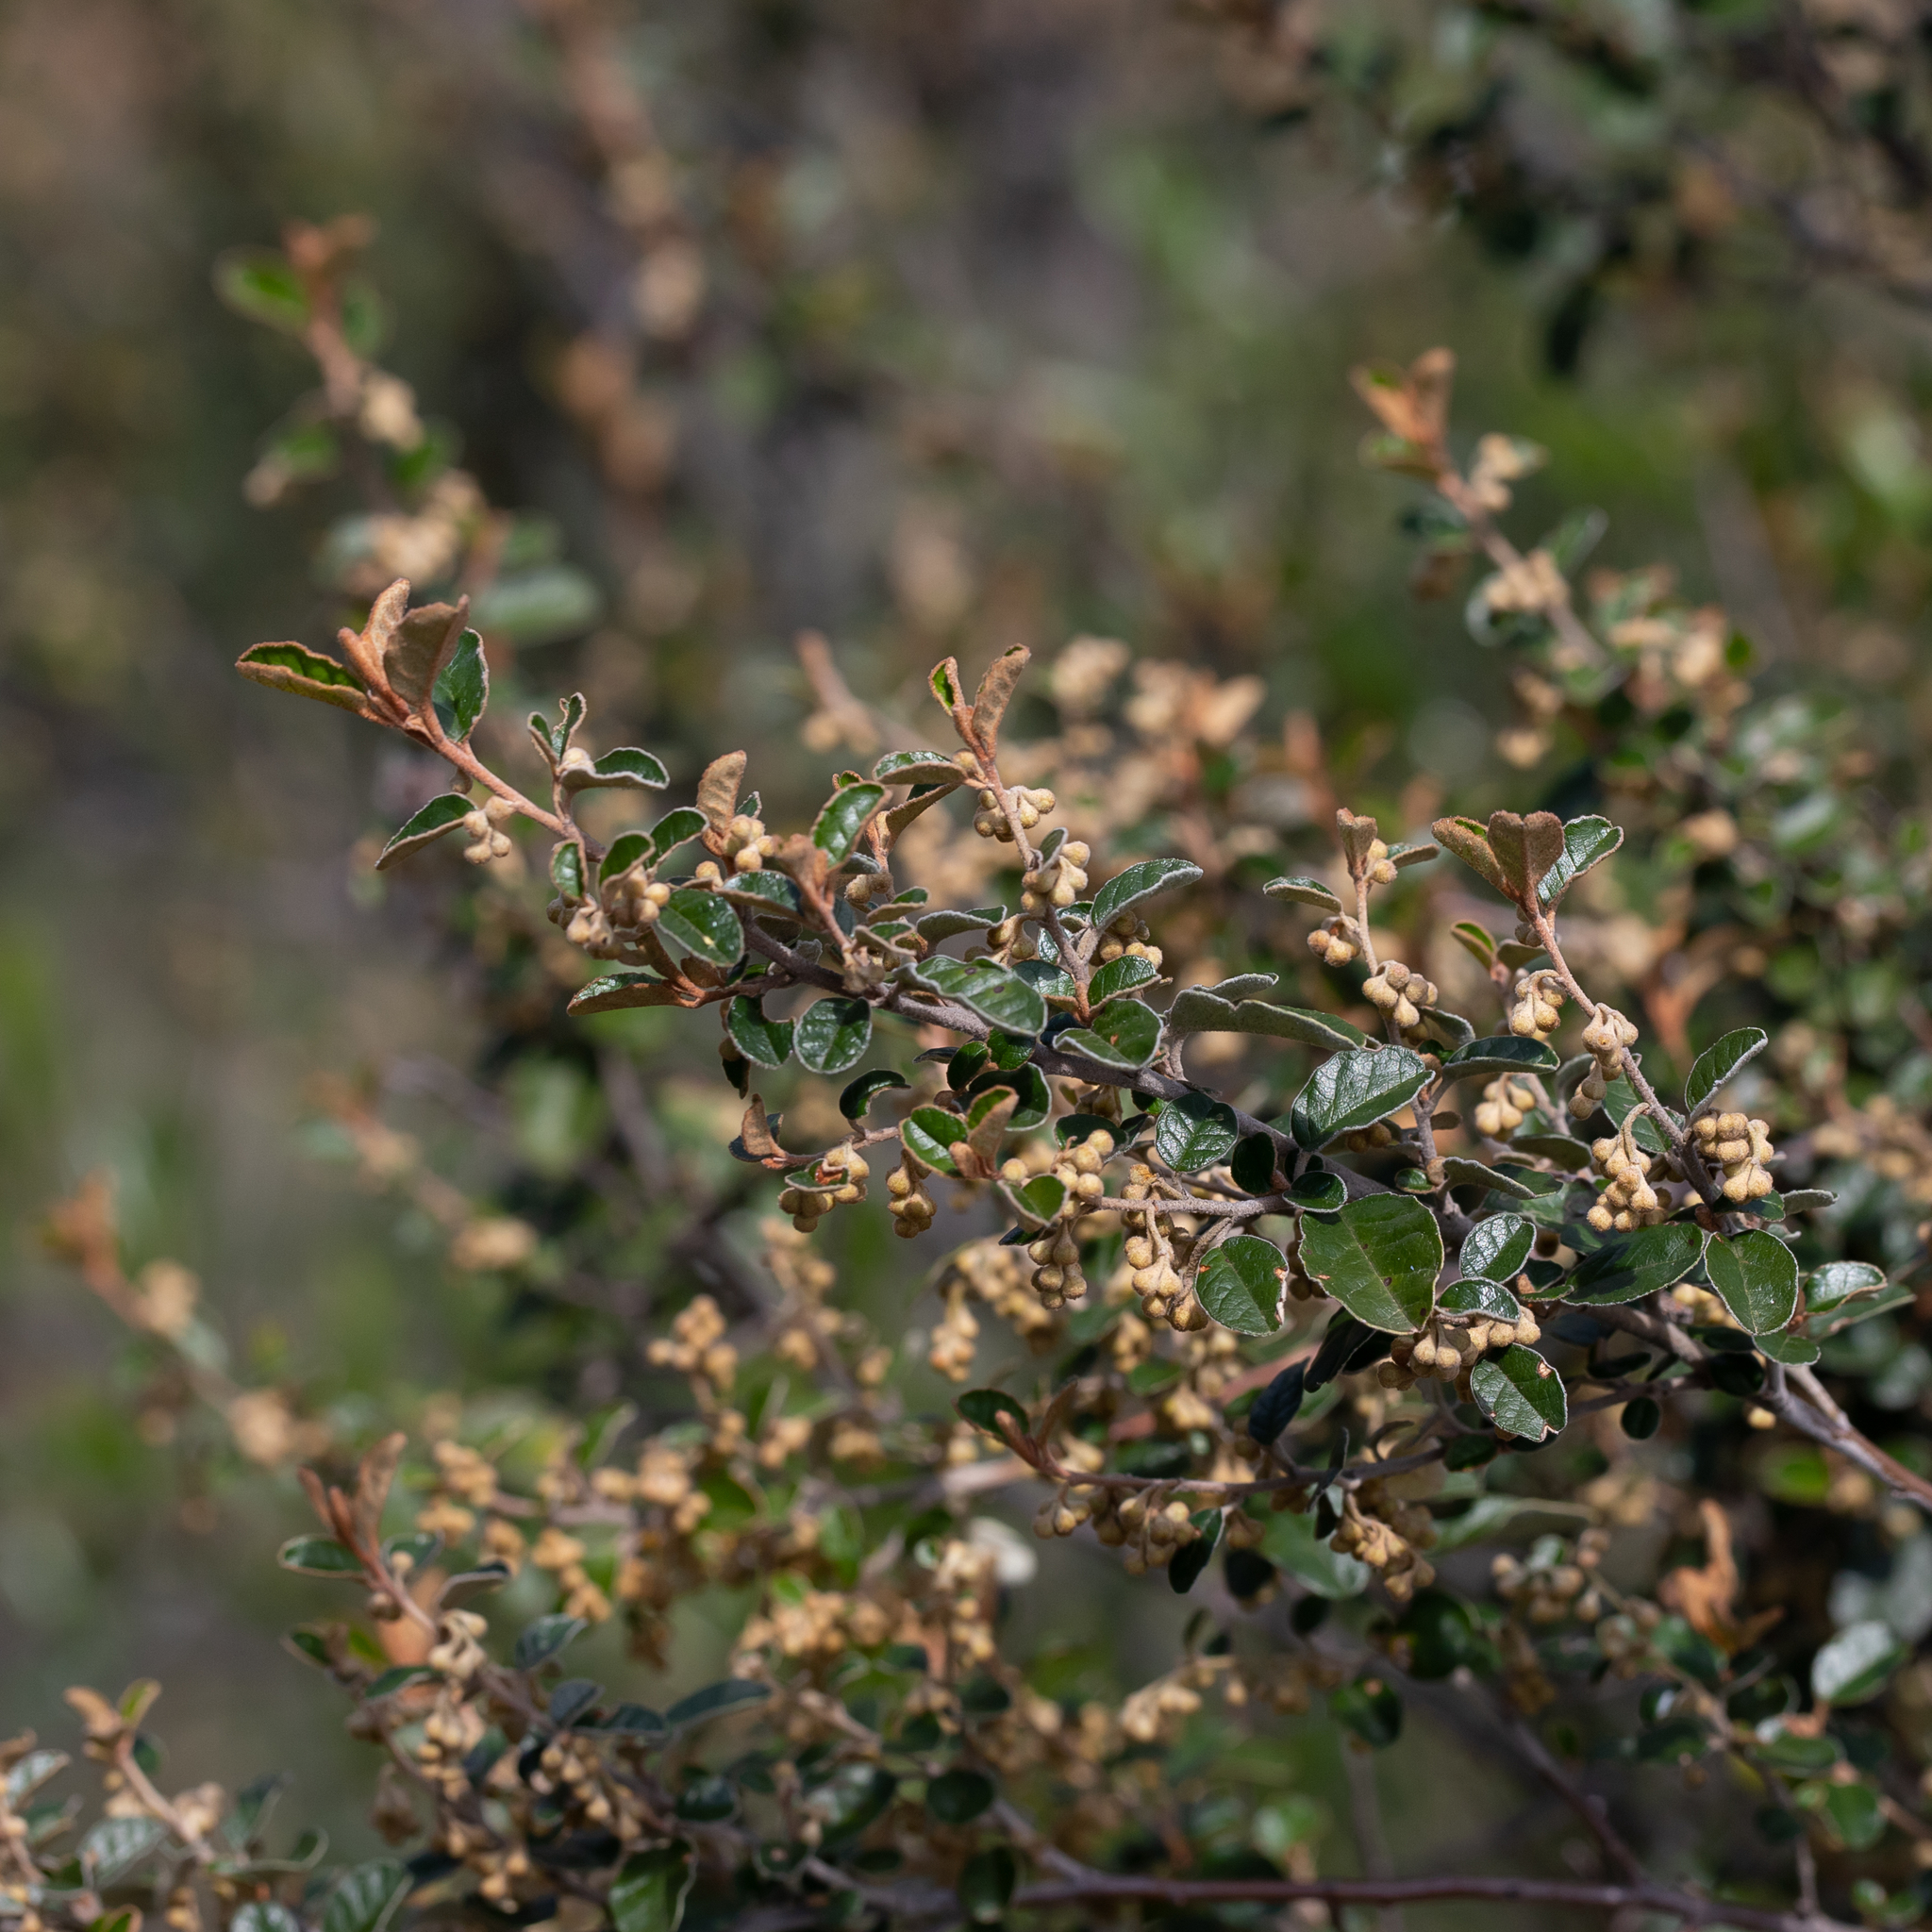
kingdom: Plantae
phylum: Tracheophyta
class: Magnoliopsida
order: Rosales
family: Rhamnaceae
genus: Pomaderris
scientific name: Pomaderris paniculosa
